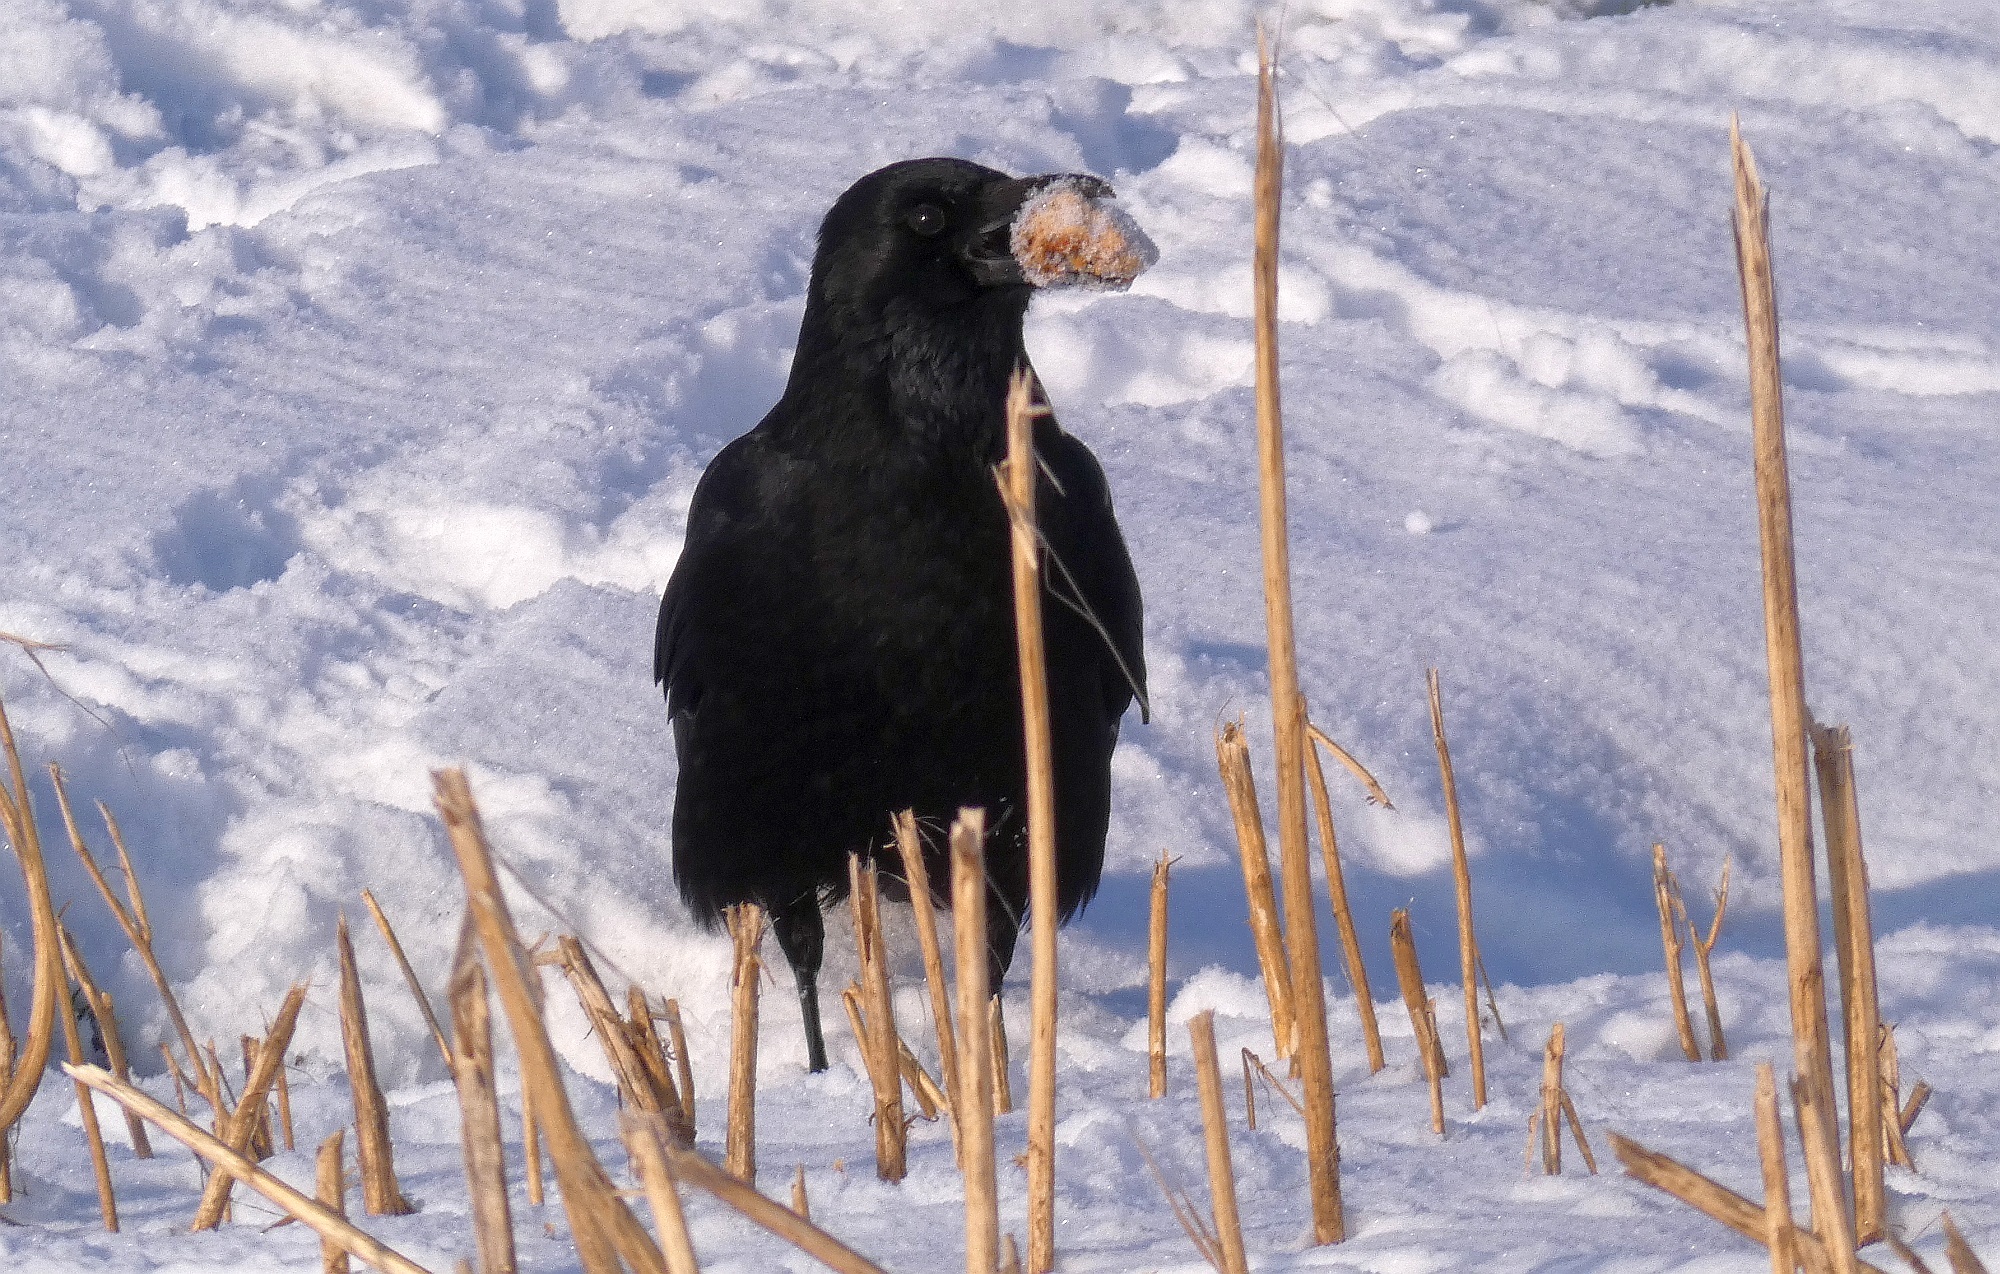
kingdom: Animalia
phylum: Chordata
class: Aves
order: Passeriformes
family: Corvidae
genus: Corvus
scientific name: Corvus corone
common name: Carrion crow
